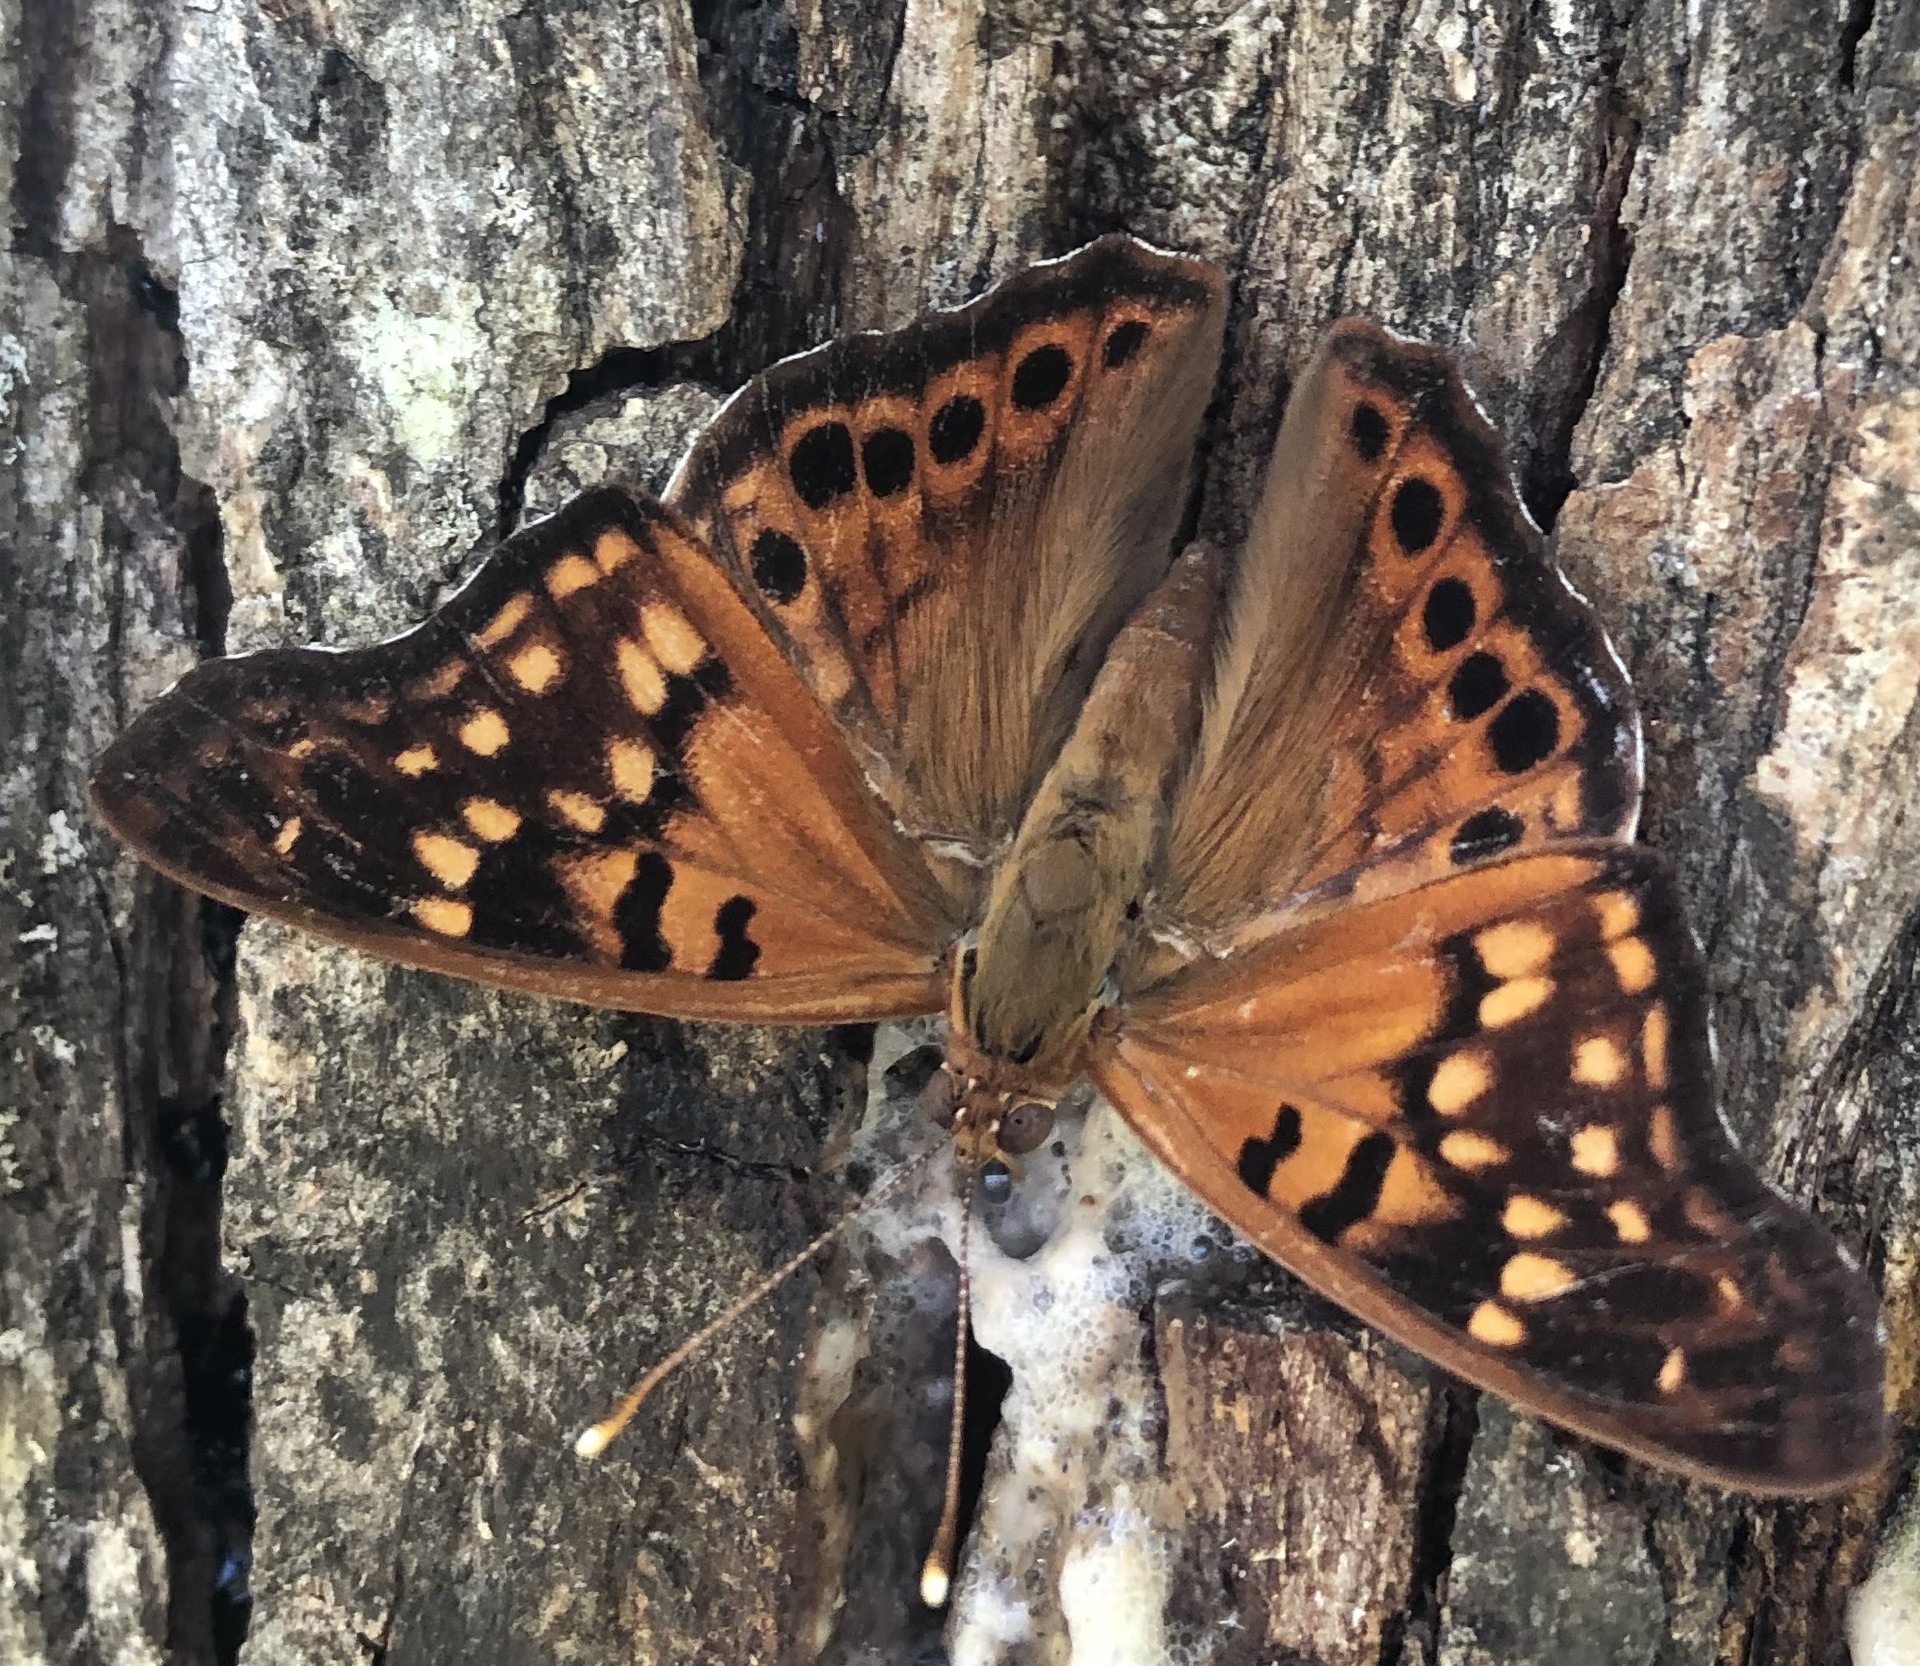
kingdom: Animalia
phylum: Arthropoda
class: Insecta
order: Lepidoptera
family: Nymphalidae
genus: Asterocampa
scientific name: Asterocampa clyton
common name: Tawny emperor
